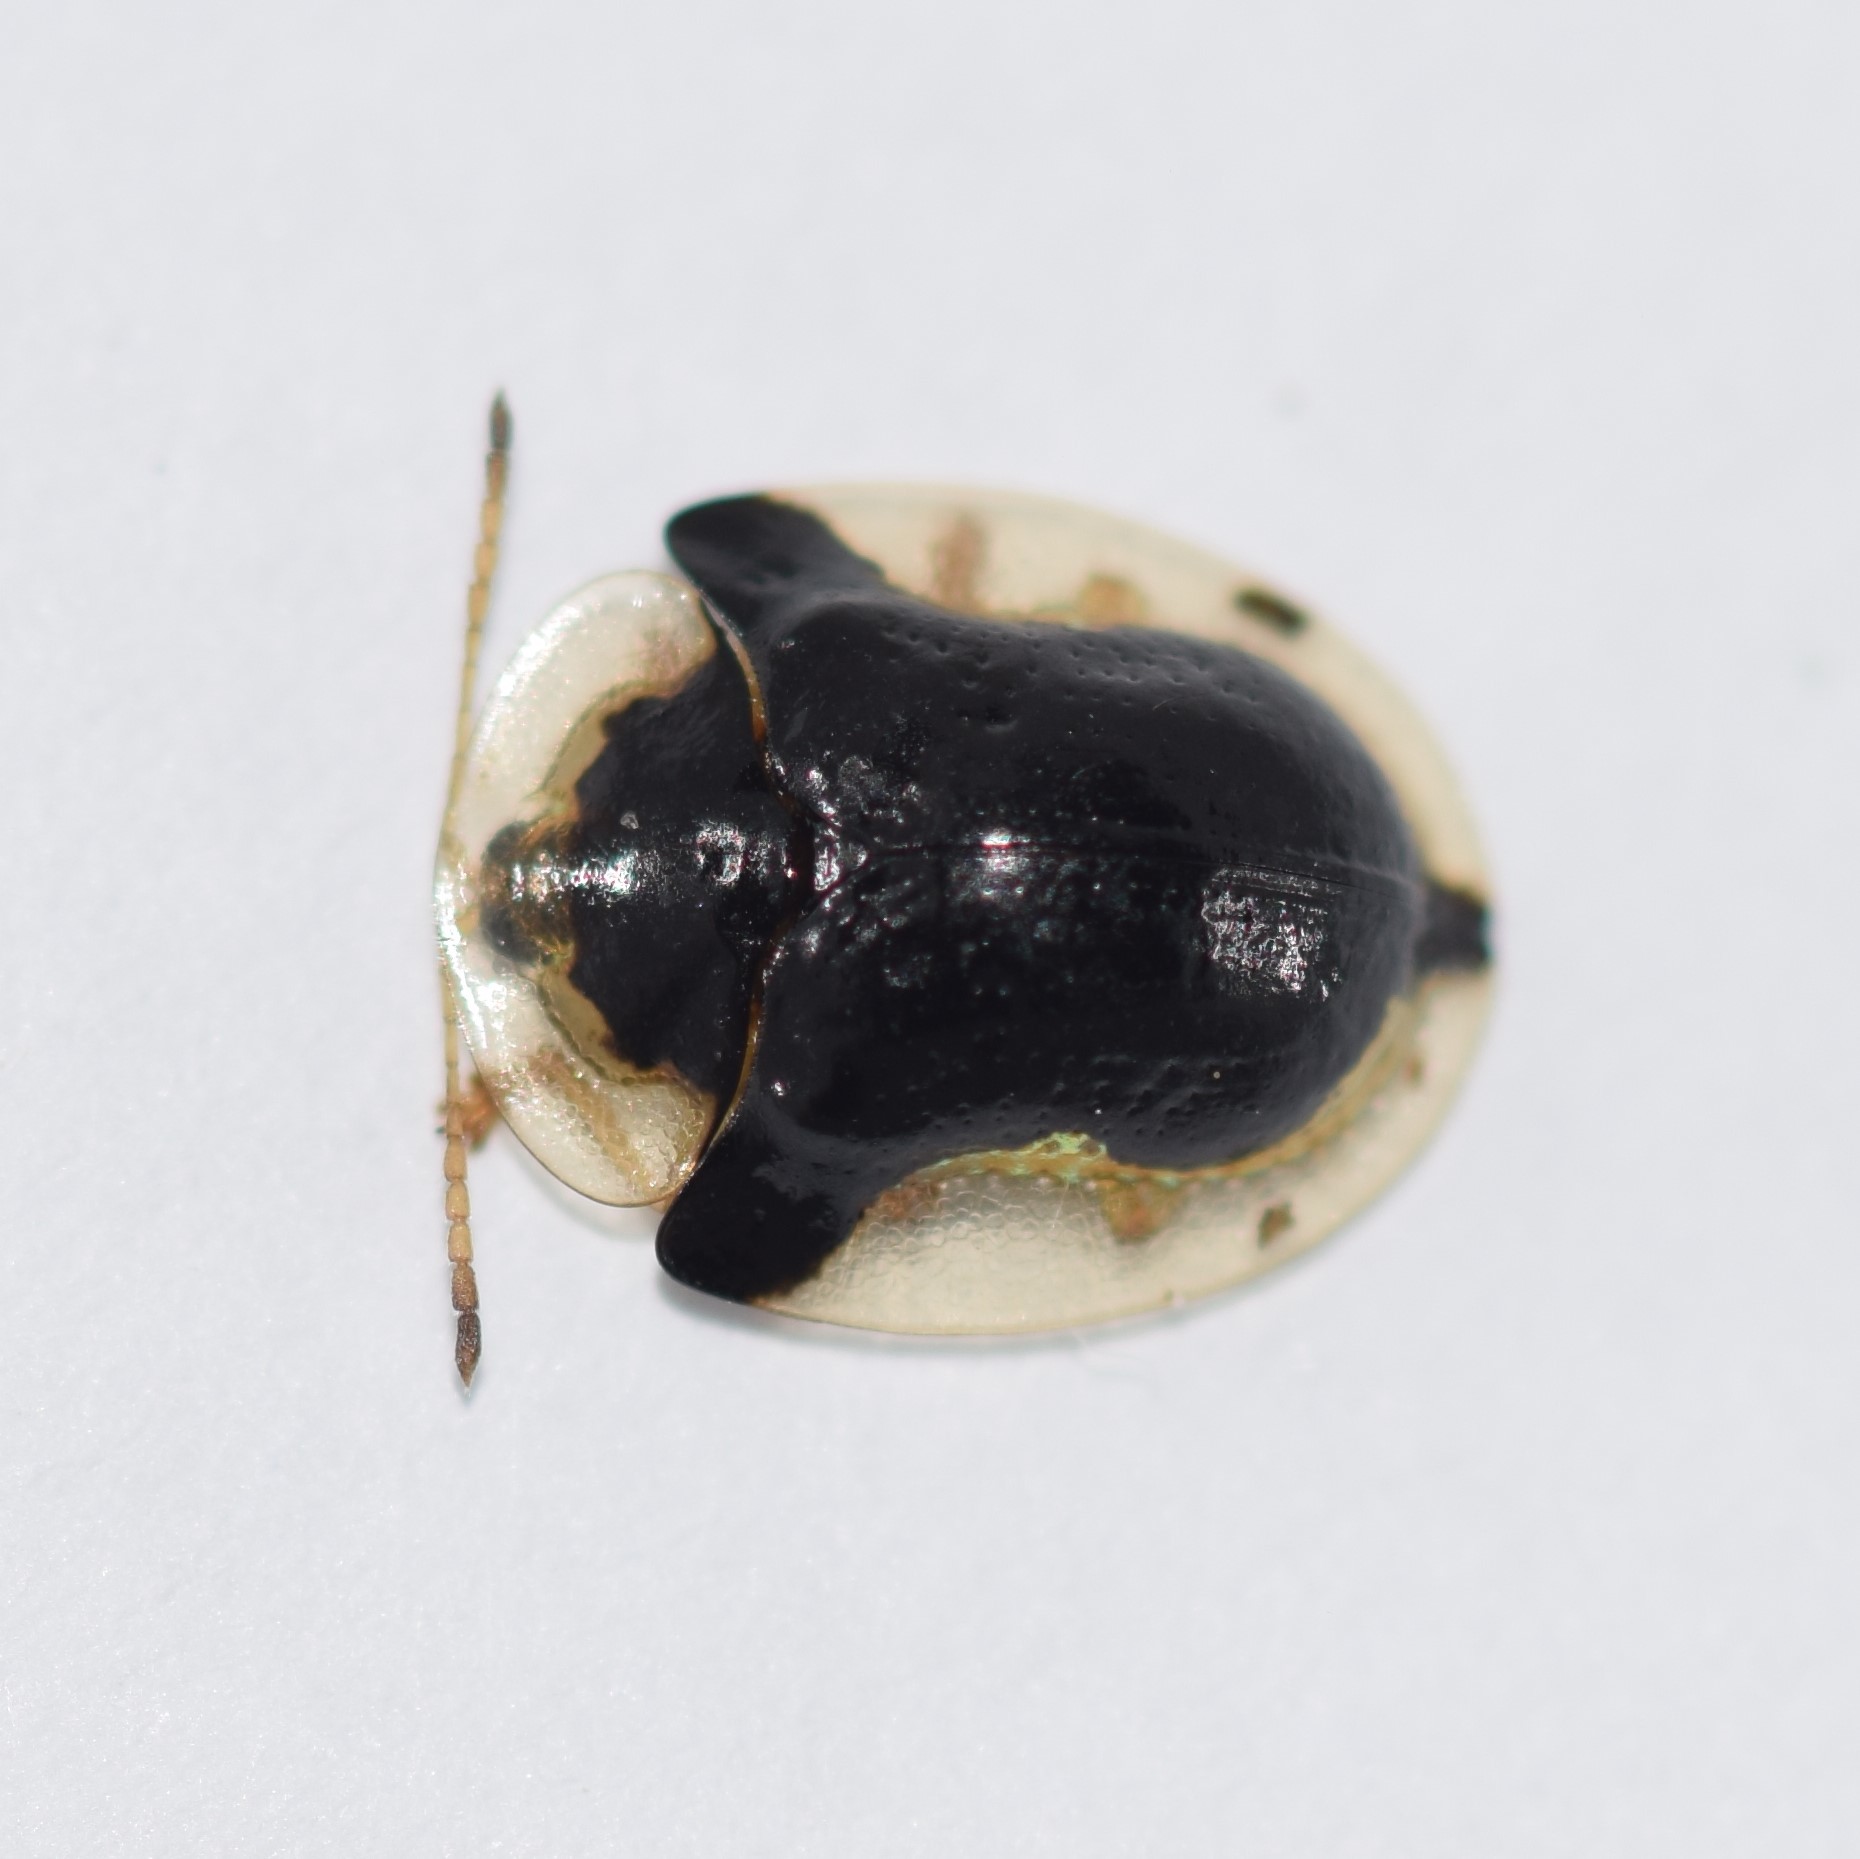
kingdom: Animalia
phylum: Arthropoda
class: Insecta
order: Coleoptera
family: Chrysomelidae
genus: Deloyala
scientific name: Deloyala guttata
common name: Mottled tortoise beetle
